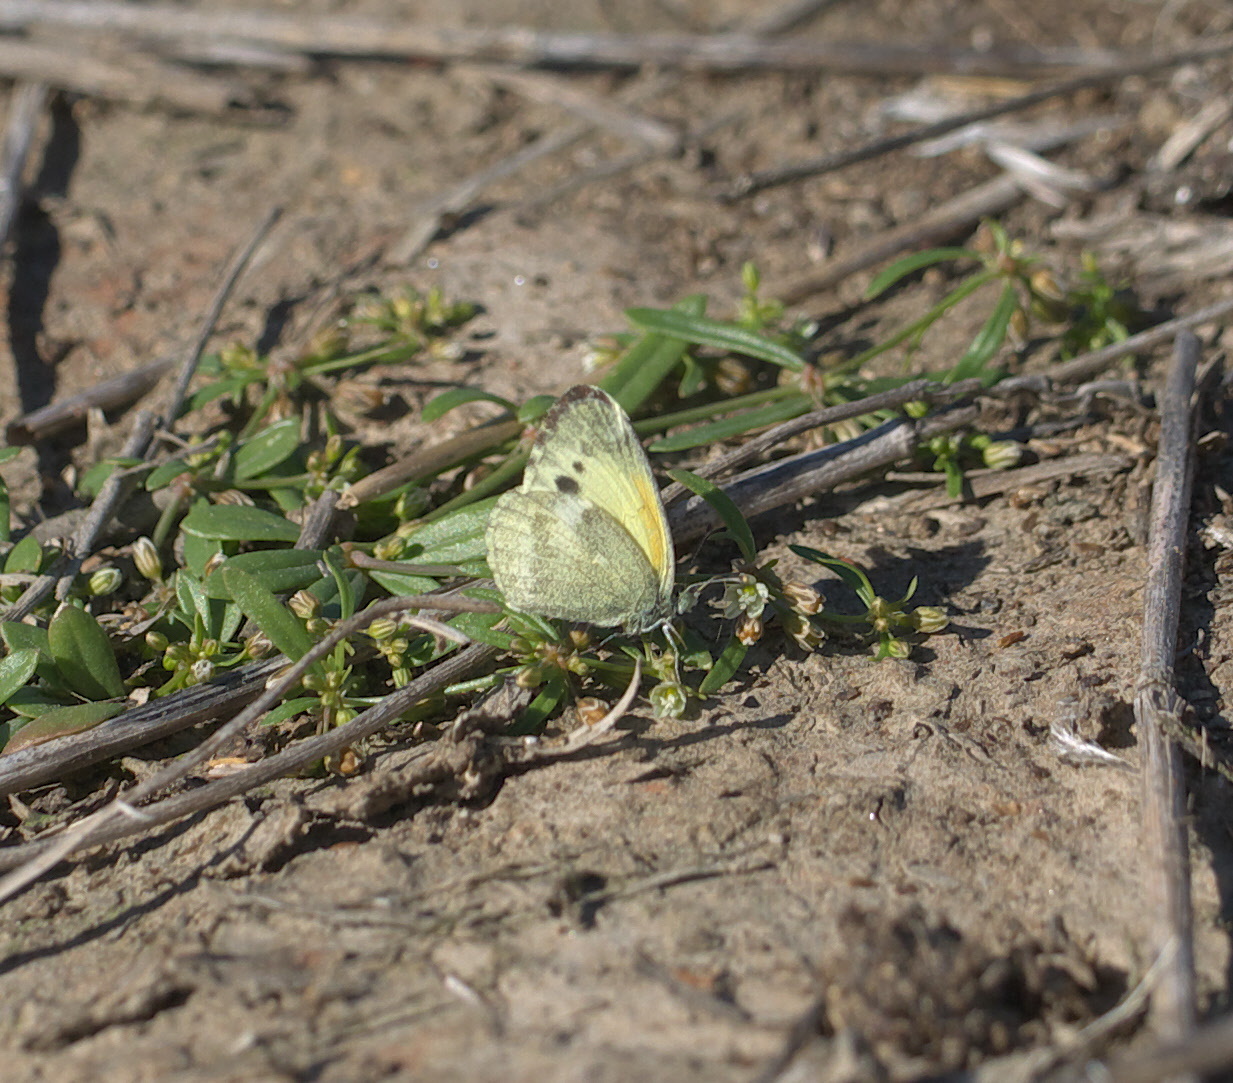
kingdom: Animalia
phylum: Arthropoda
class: Insecta
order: Lepidoptera
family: Pieridae
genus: Nathalis
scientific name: Nathalis iole
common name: Dainty sulphur
